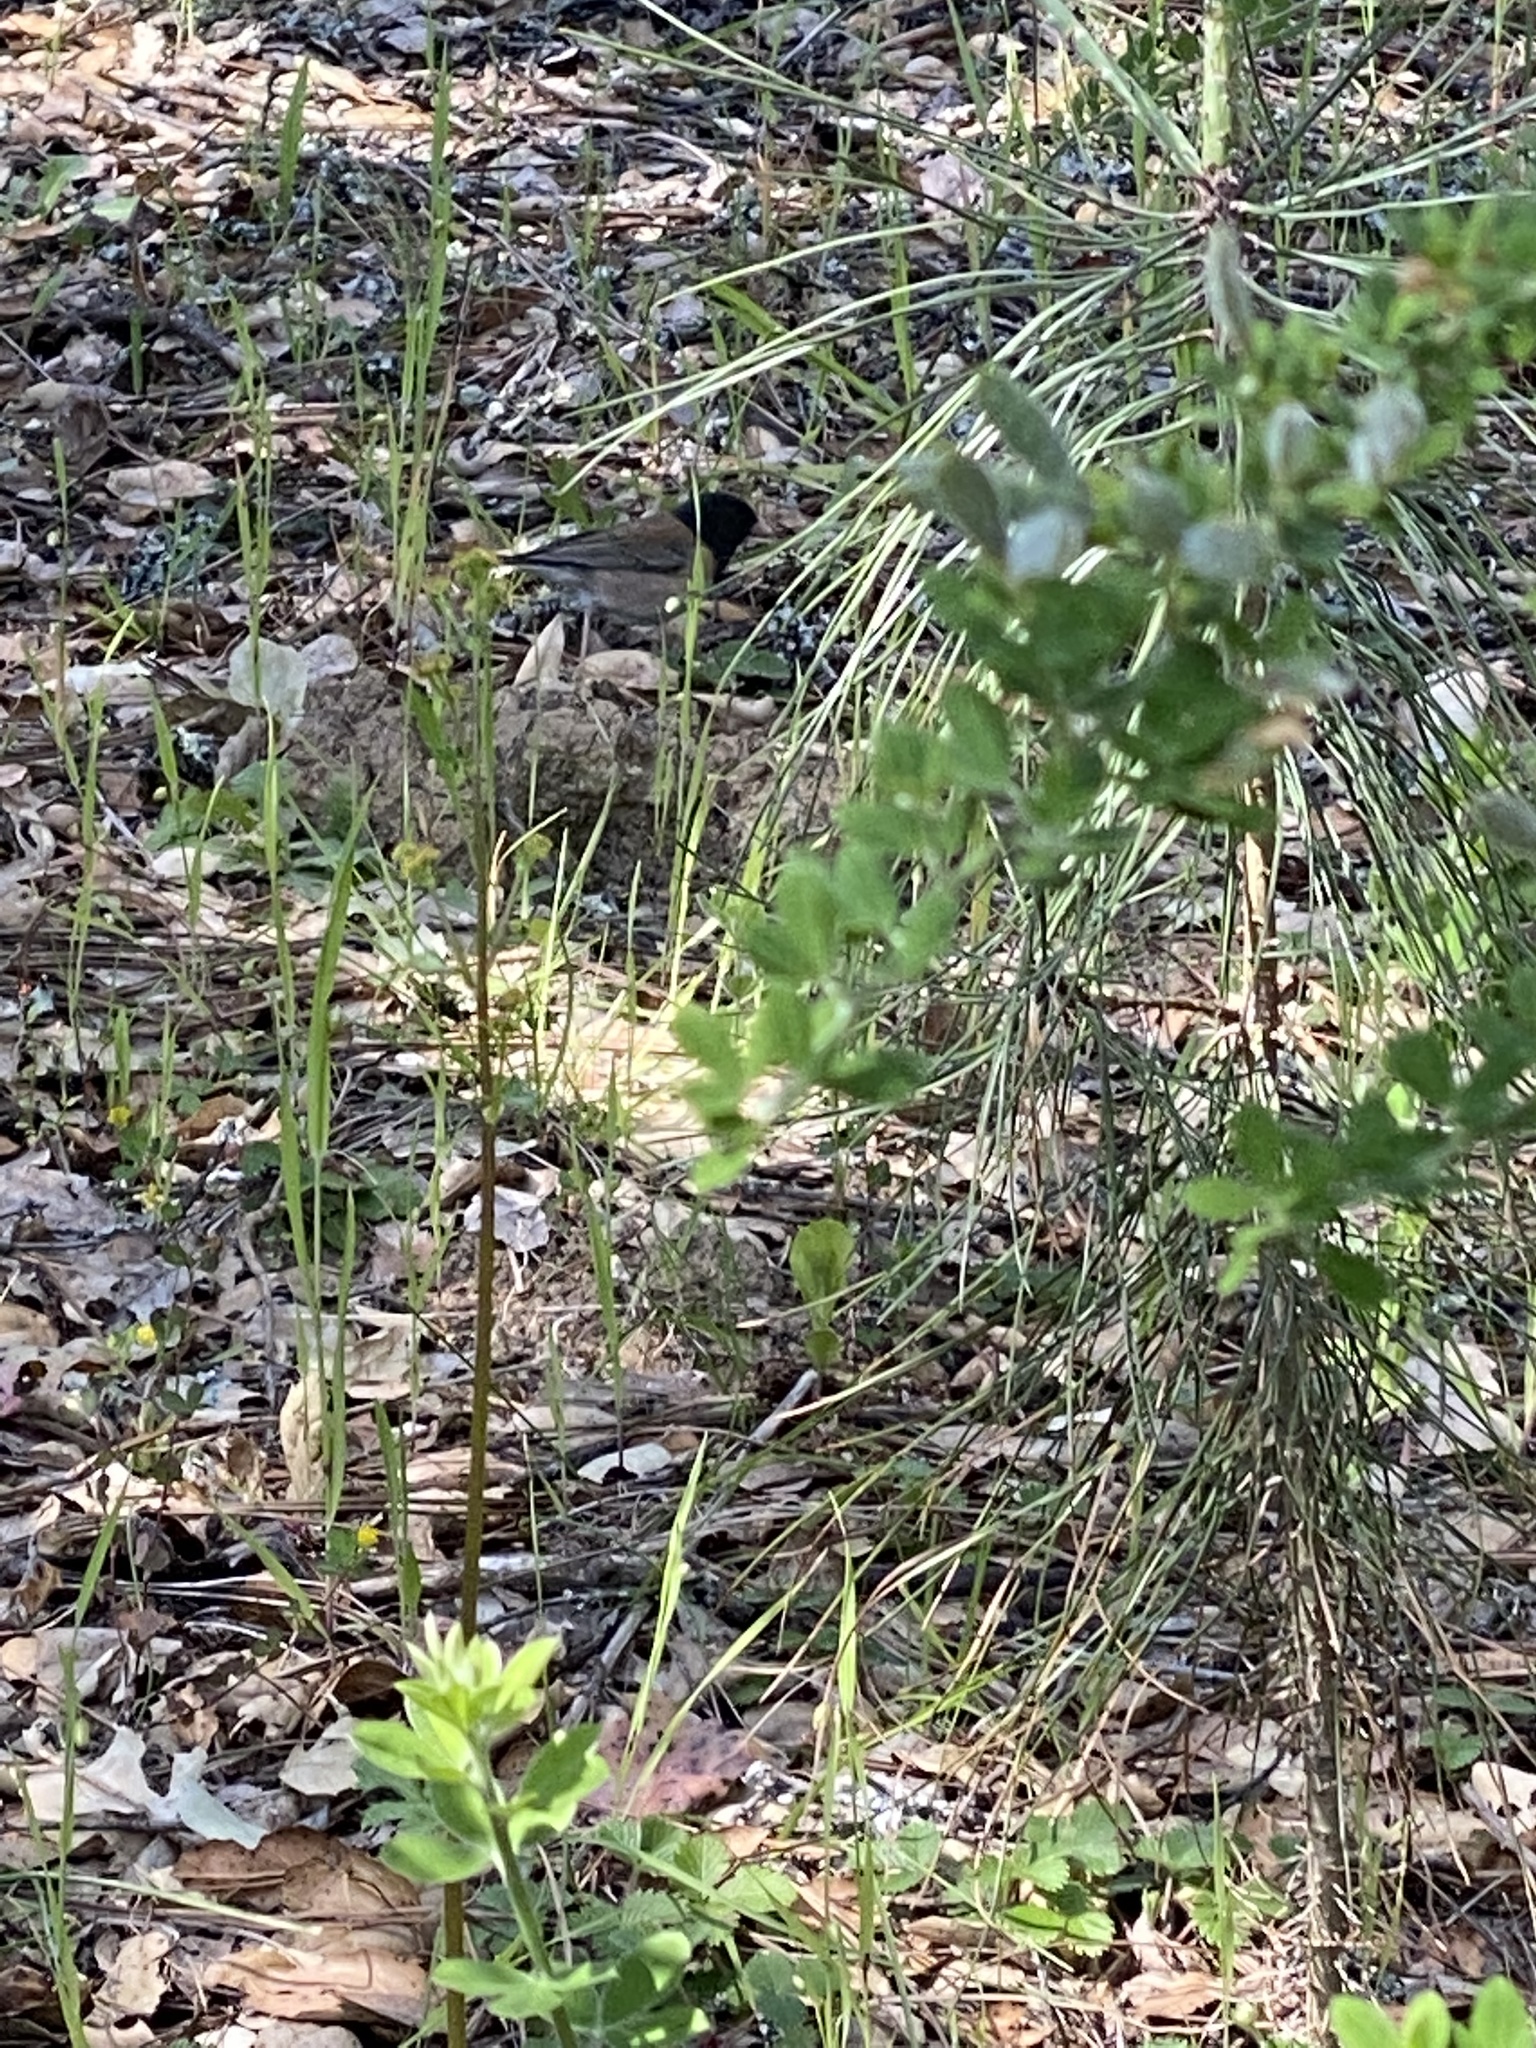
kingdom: Animalia
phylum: Chordata
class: Aves
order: Passeriformes
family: Passerellidae
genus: Junco
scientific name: Junco hyemalis
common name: Dark-eyed junco
